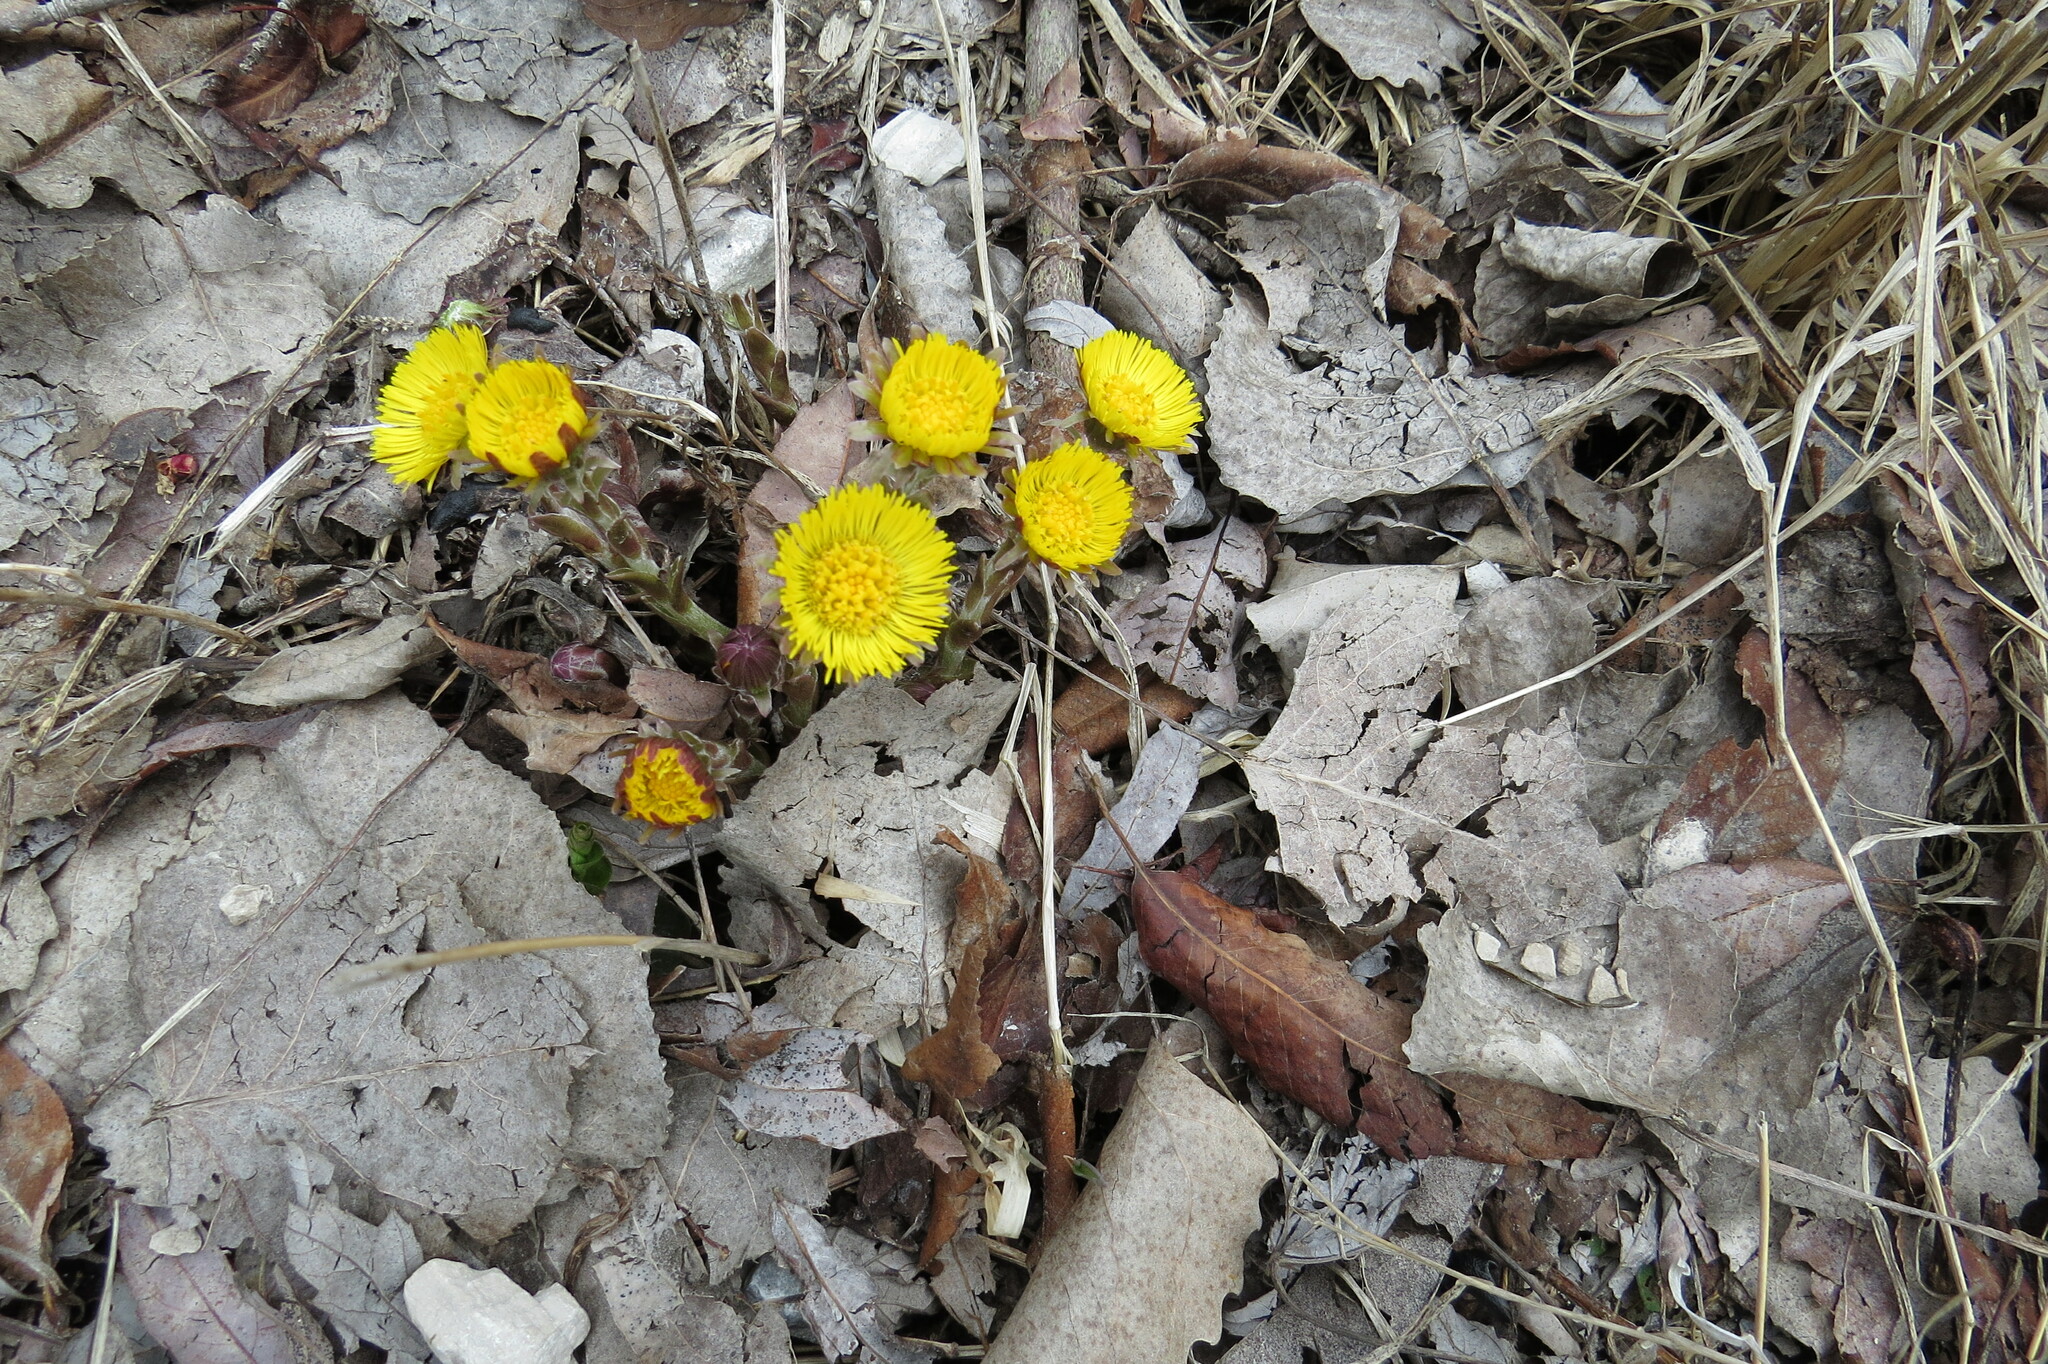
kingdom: Plantae
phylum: Tracheophyta
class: Magnoliopsida
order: Asterales
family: Asteraceae
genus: Tussilago
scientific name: Tussilago farfara
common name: Coltsfoot
